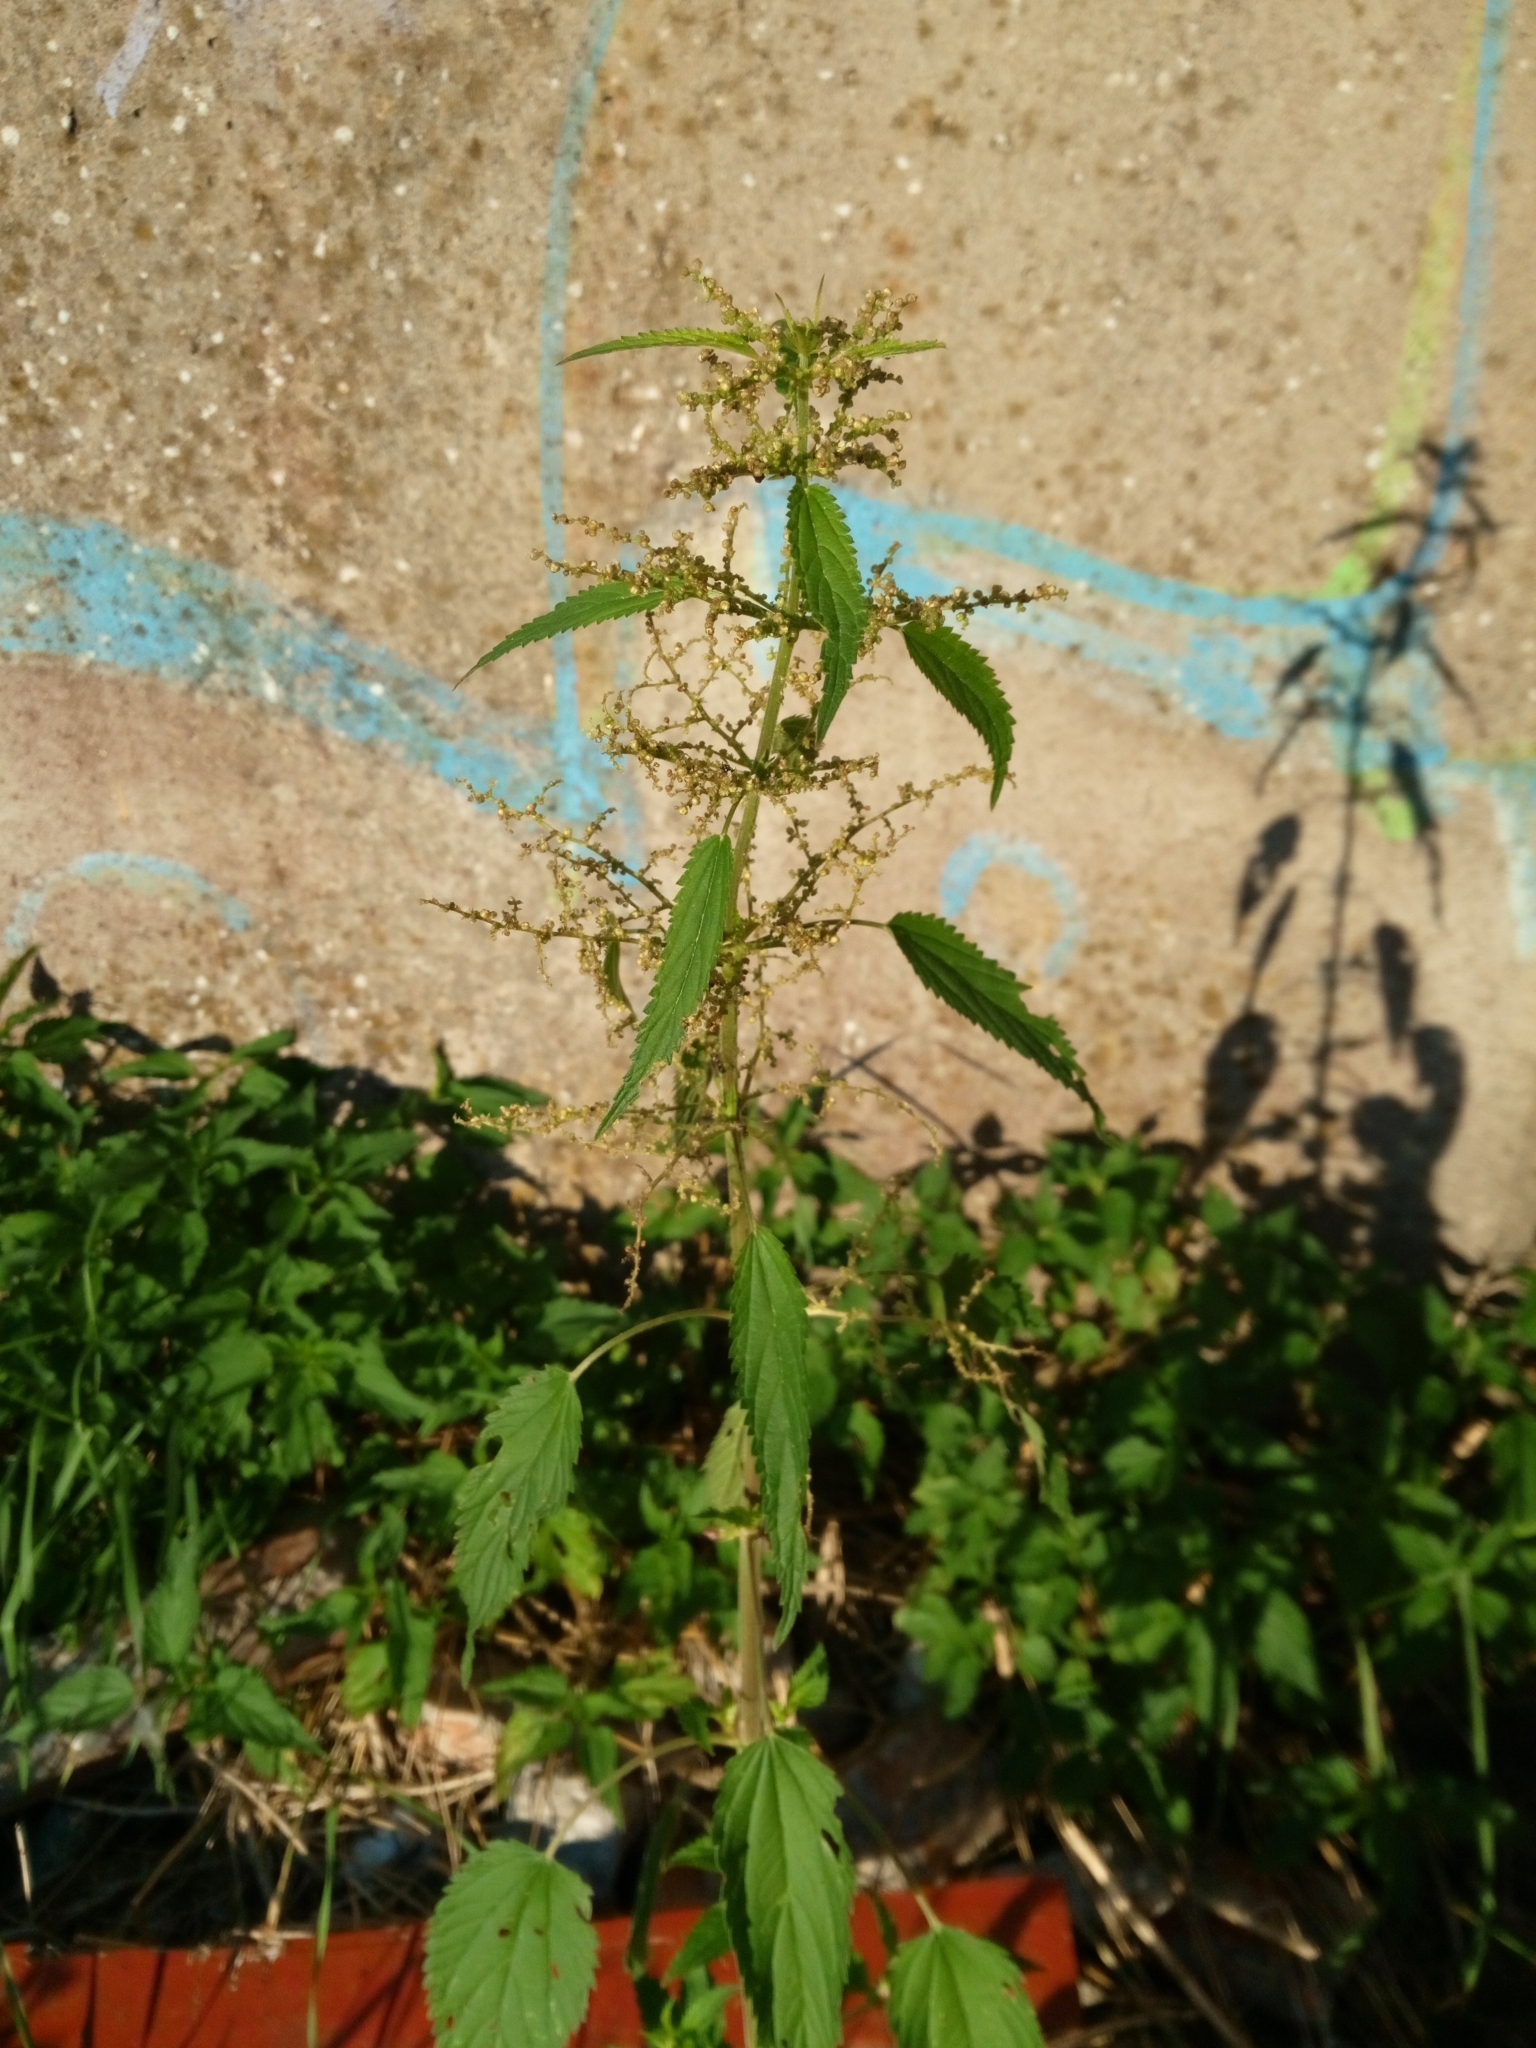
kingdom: Plantae
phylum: Tracheophyta
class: Magnoliopsida
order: Rosales
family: Urticaceae
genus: Urtica
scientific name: Urtica dioica
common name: Common nettle
